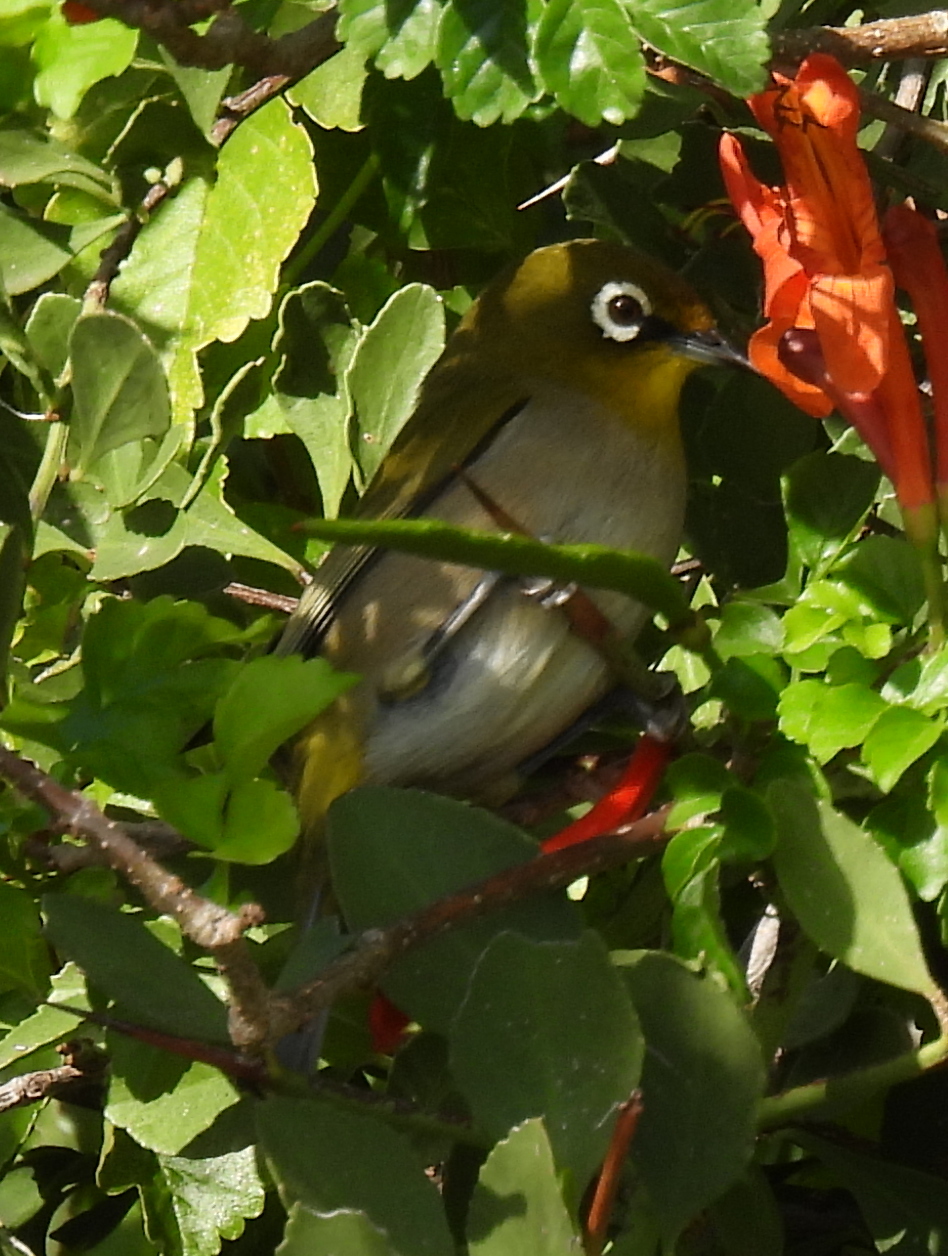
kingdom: Animalia
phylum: Chordata
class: Aves
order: Passeriformes
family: Zosteropidae
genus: Zosterops
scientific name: Zosterops virens
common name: Cape white-eye
